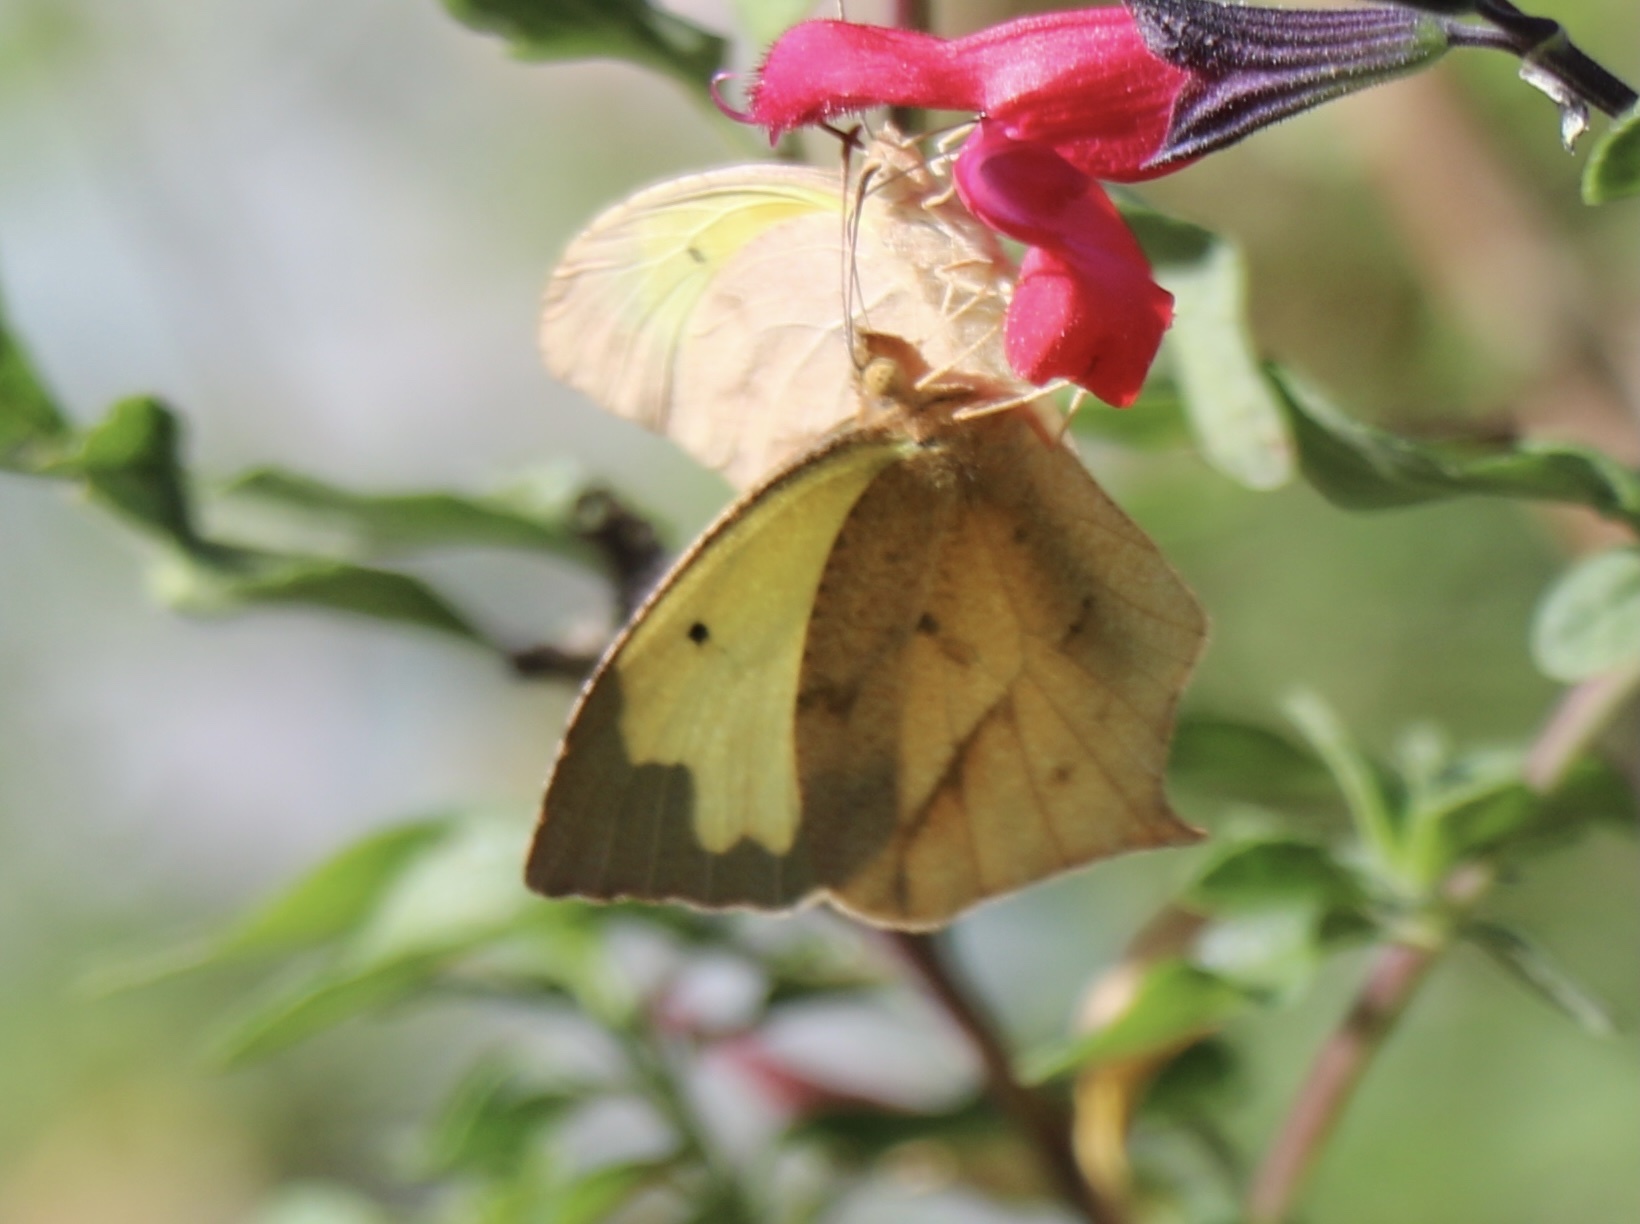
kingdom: Animalia
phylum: Arthropoda
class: Insecta
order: Lepidoptera
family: Pieridae
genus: Abaeis
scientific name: Abaeis mexicana
